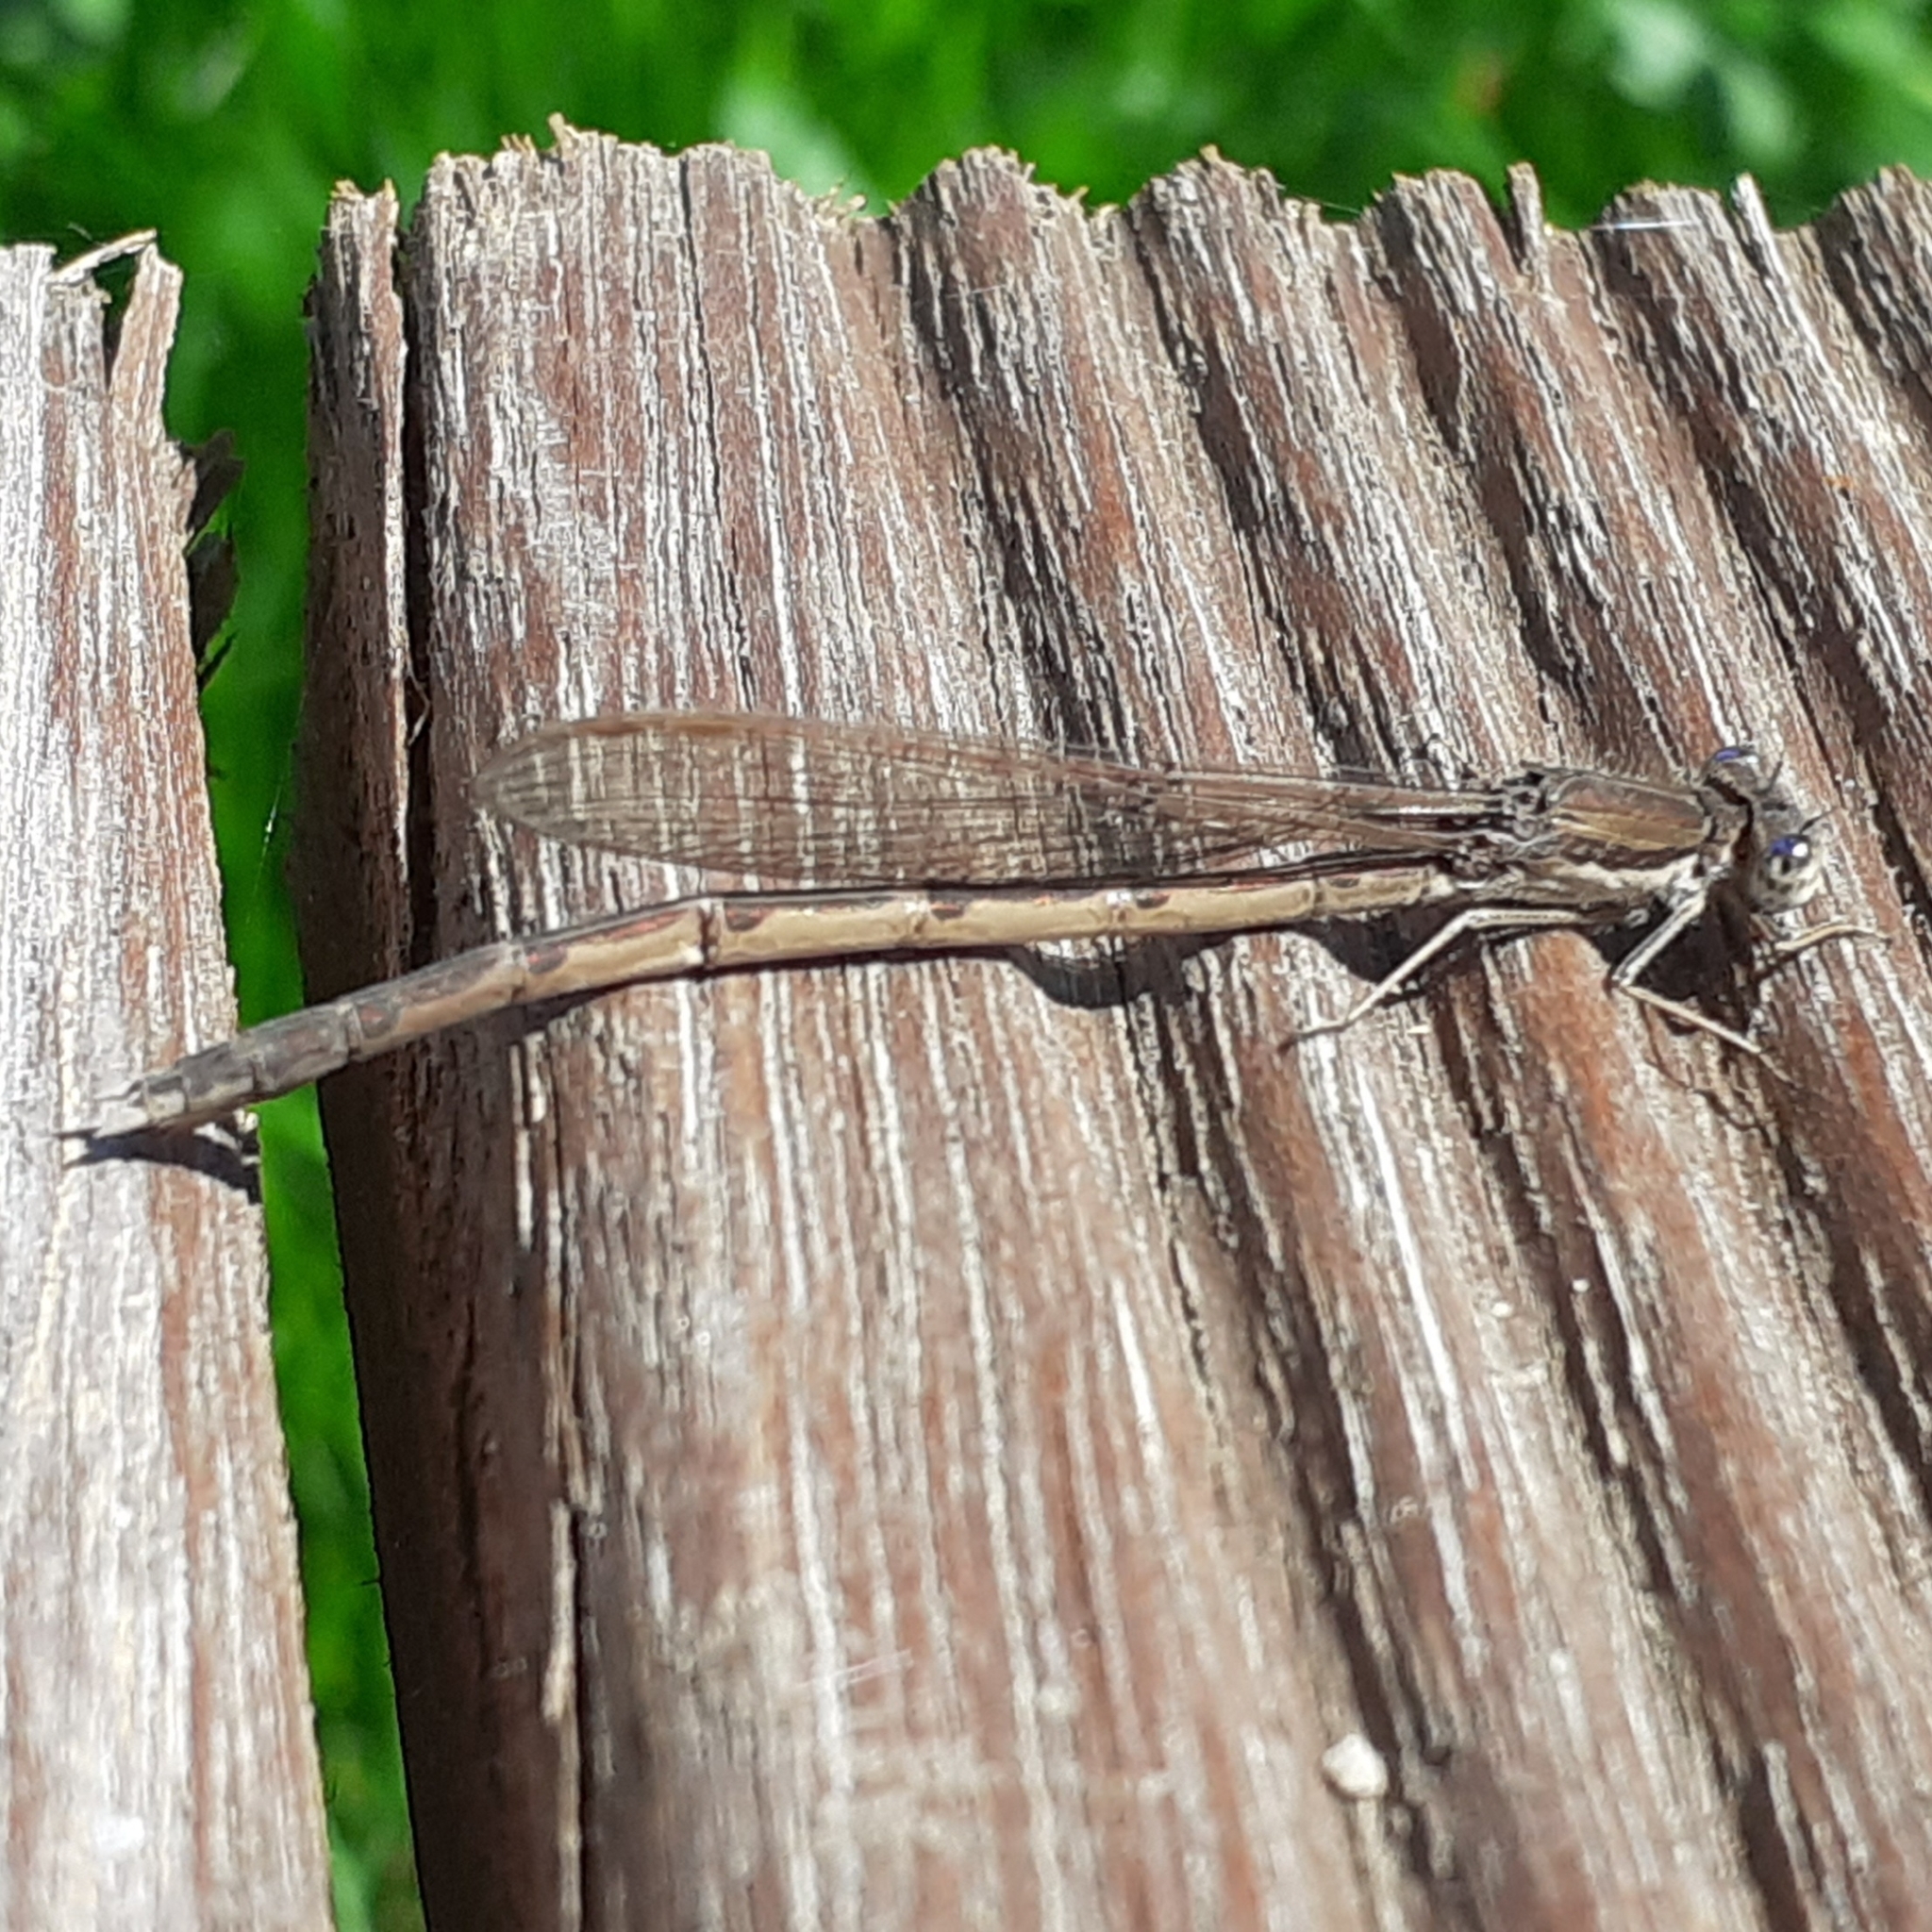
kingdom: Animalia
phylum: Arthropoda
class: Insecta
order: Odonata
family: Lestidae
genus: Sympecma
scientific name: Sympecma fusca
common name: Common winter damsel
